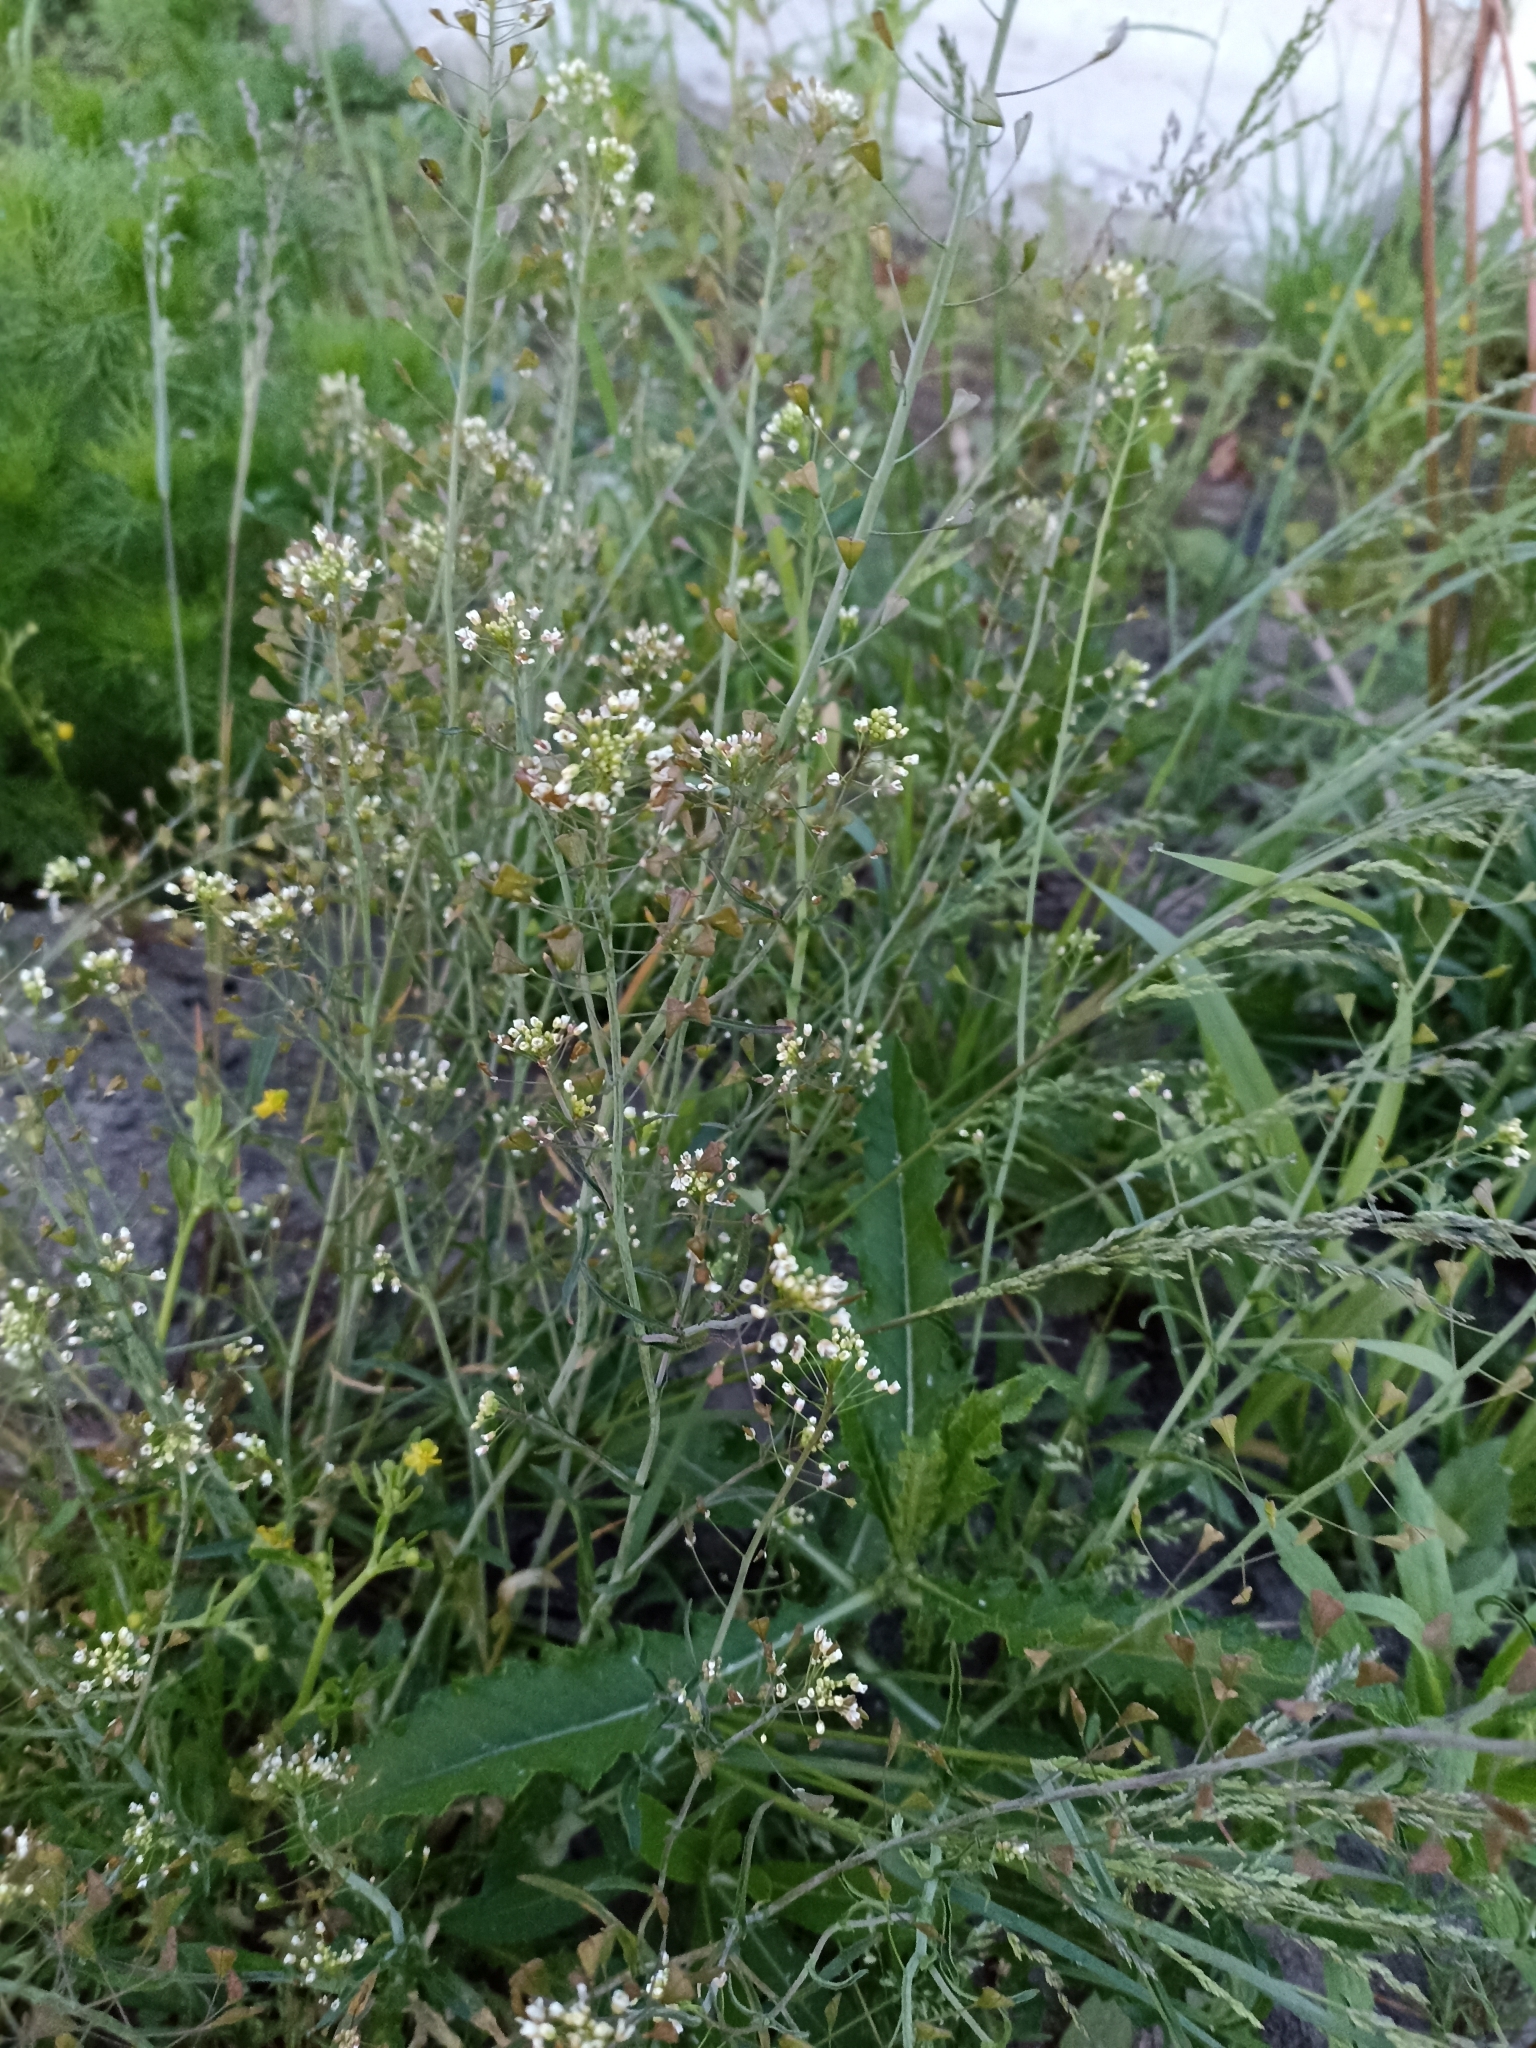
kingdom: Plantae
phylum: Tracheophyta
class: Magnoliopsida
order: Brassicales
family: Brassicaceae
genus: Capsella
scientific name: Capsella bursa-pastoris
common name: Shepherd's purse
